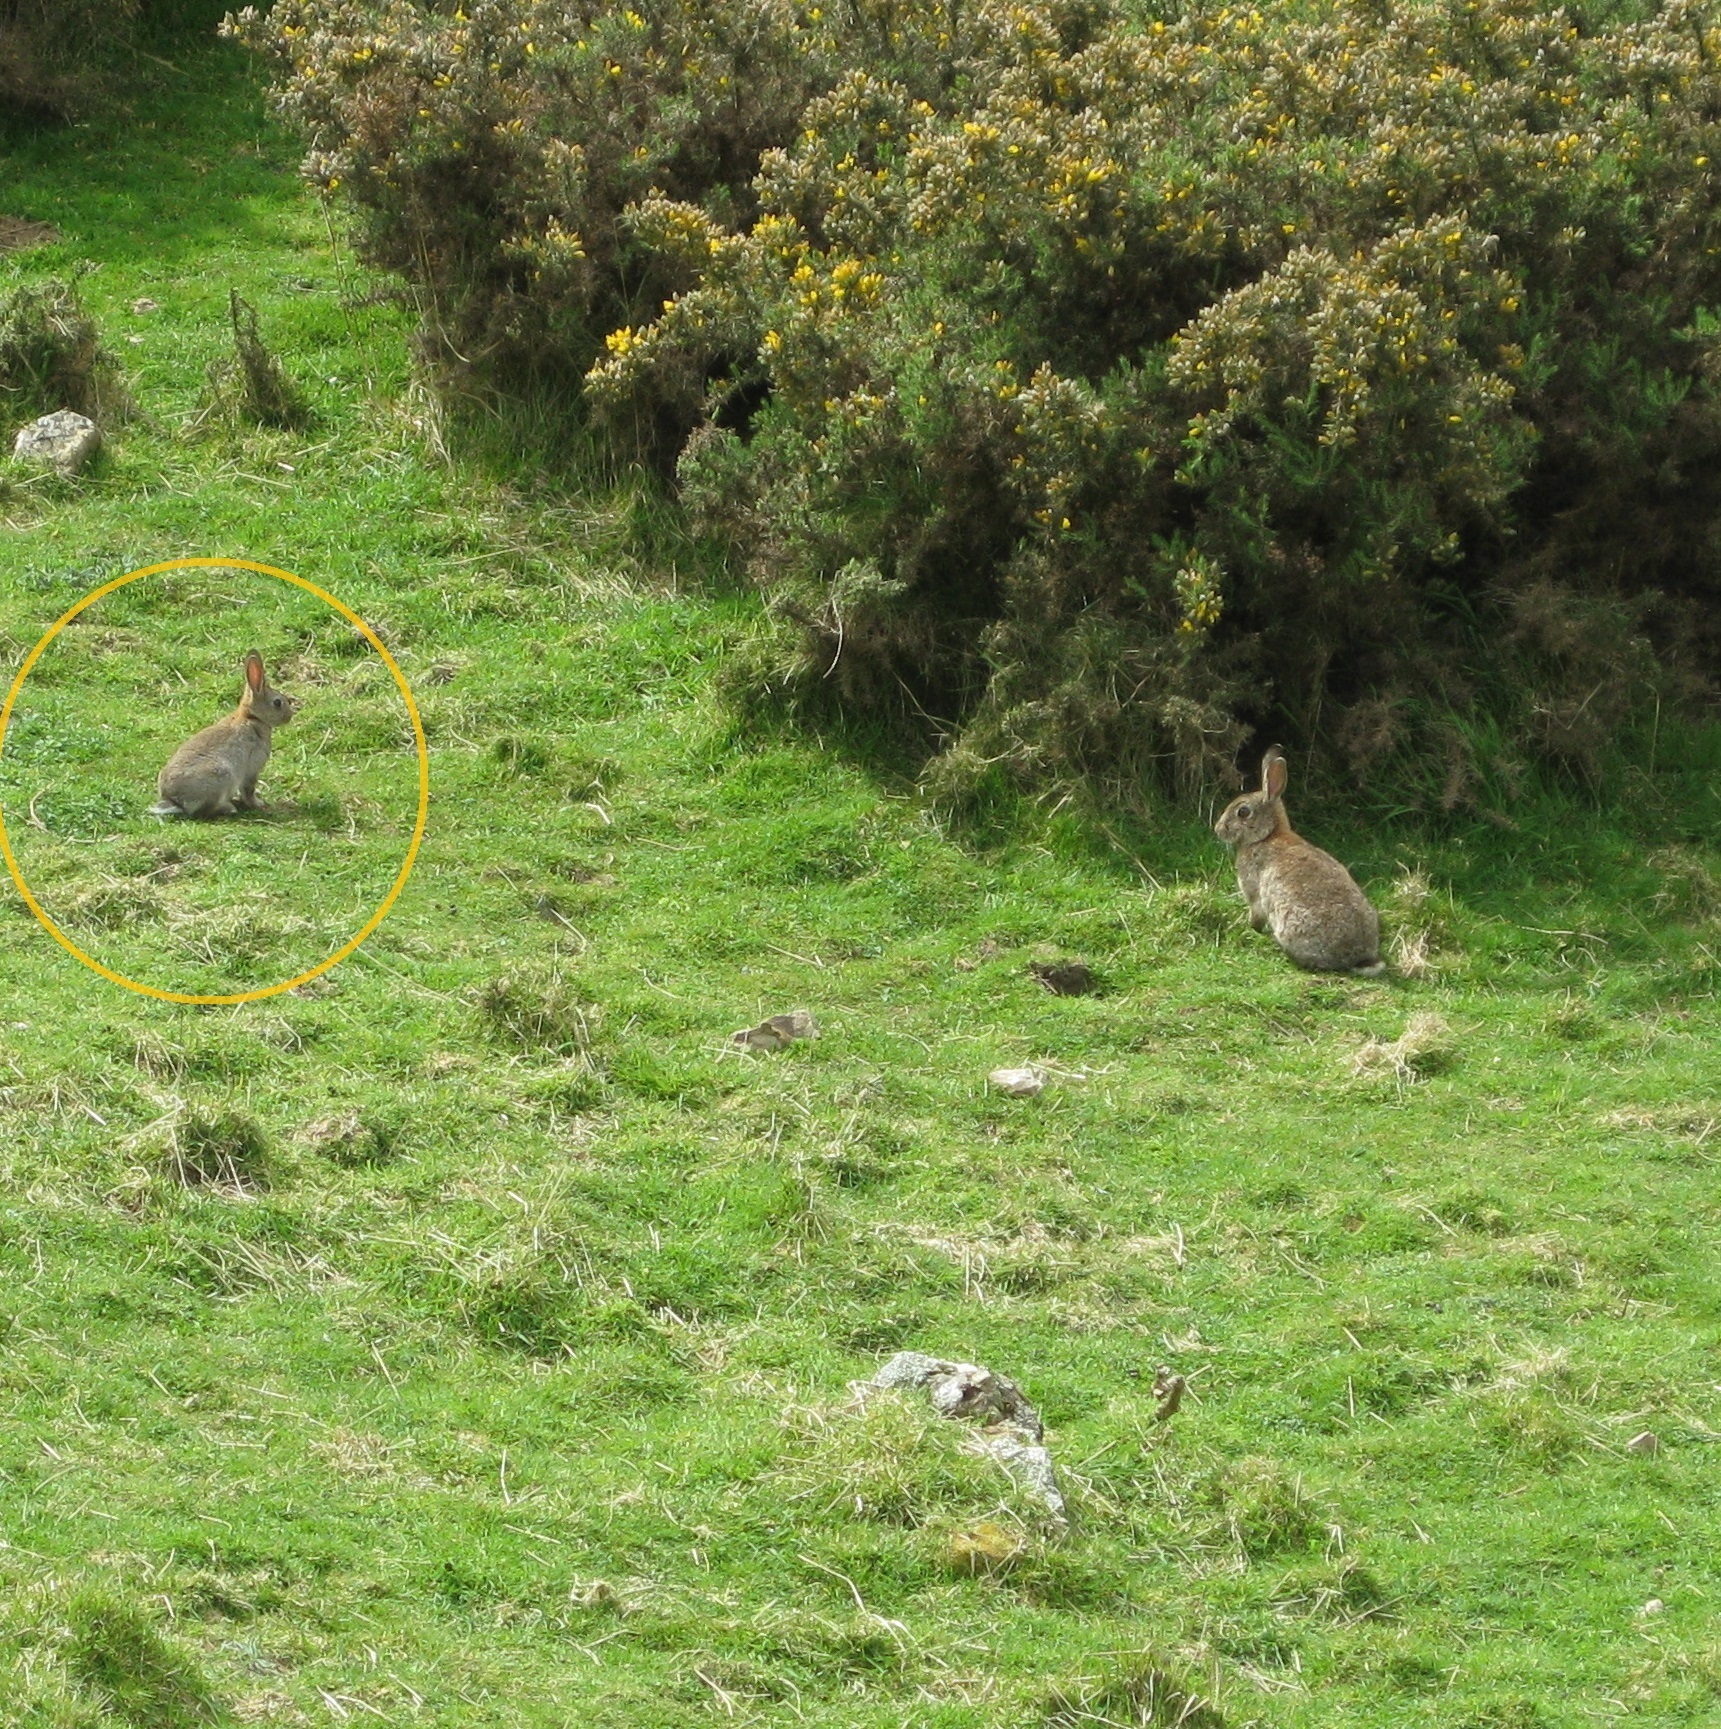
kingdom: Animalia
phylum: Chordata
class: Mammalia
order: Lagomorpha
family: Leporidae
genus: Oryctolagus
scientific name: Oryctolagus cuniculus
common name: European rabbit
